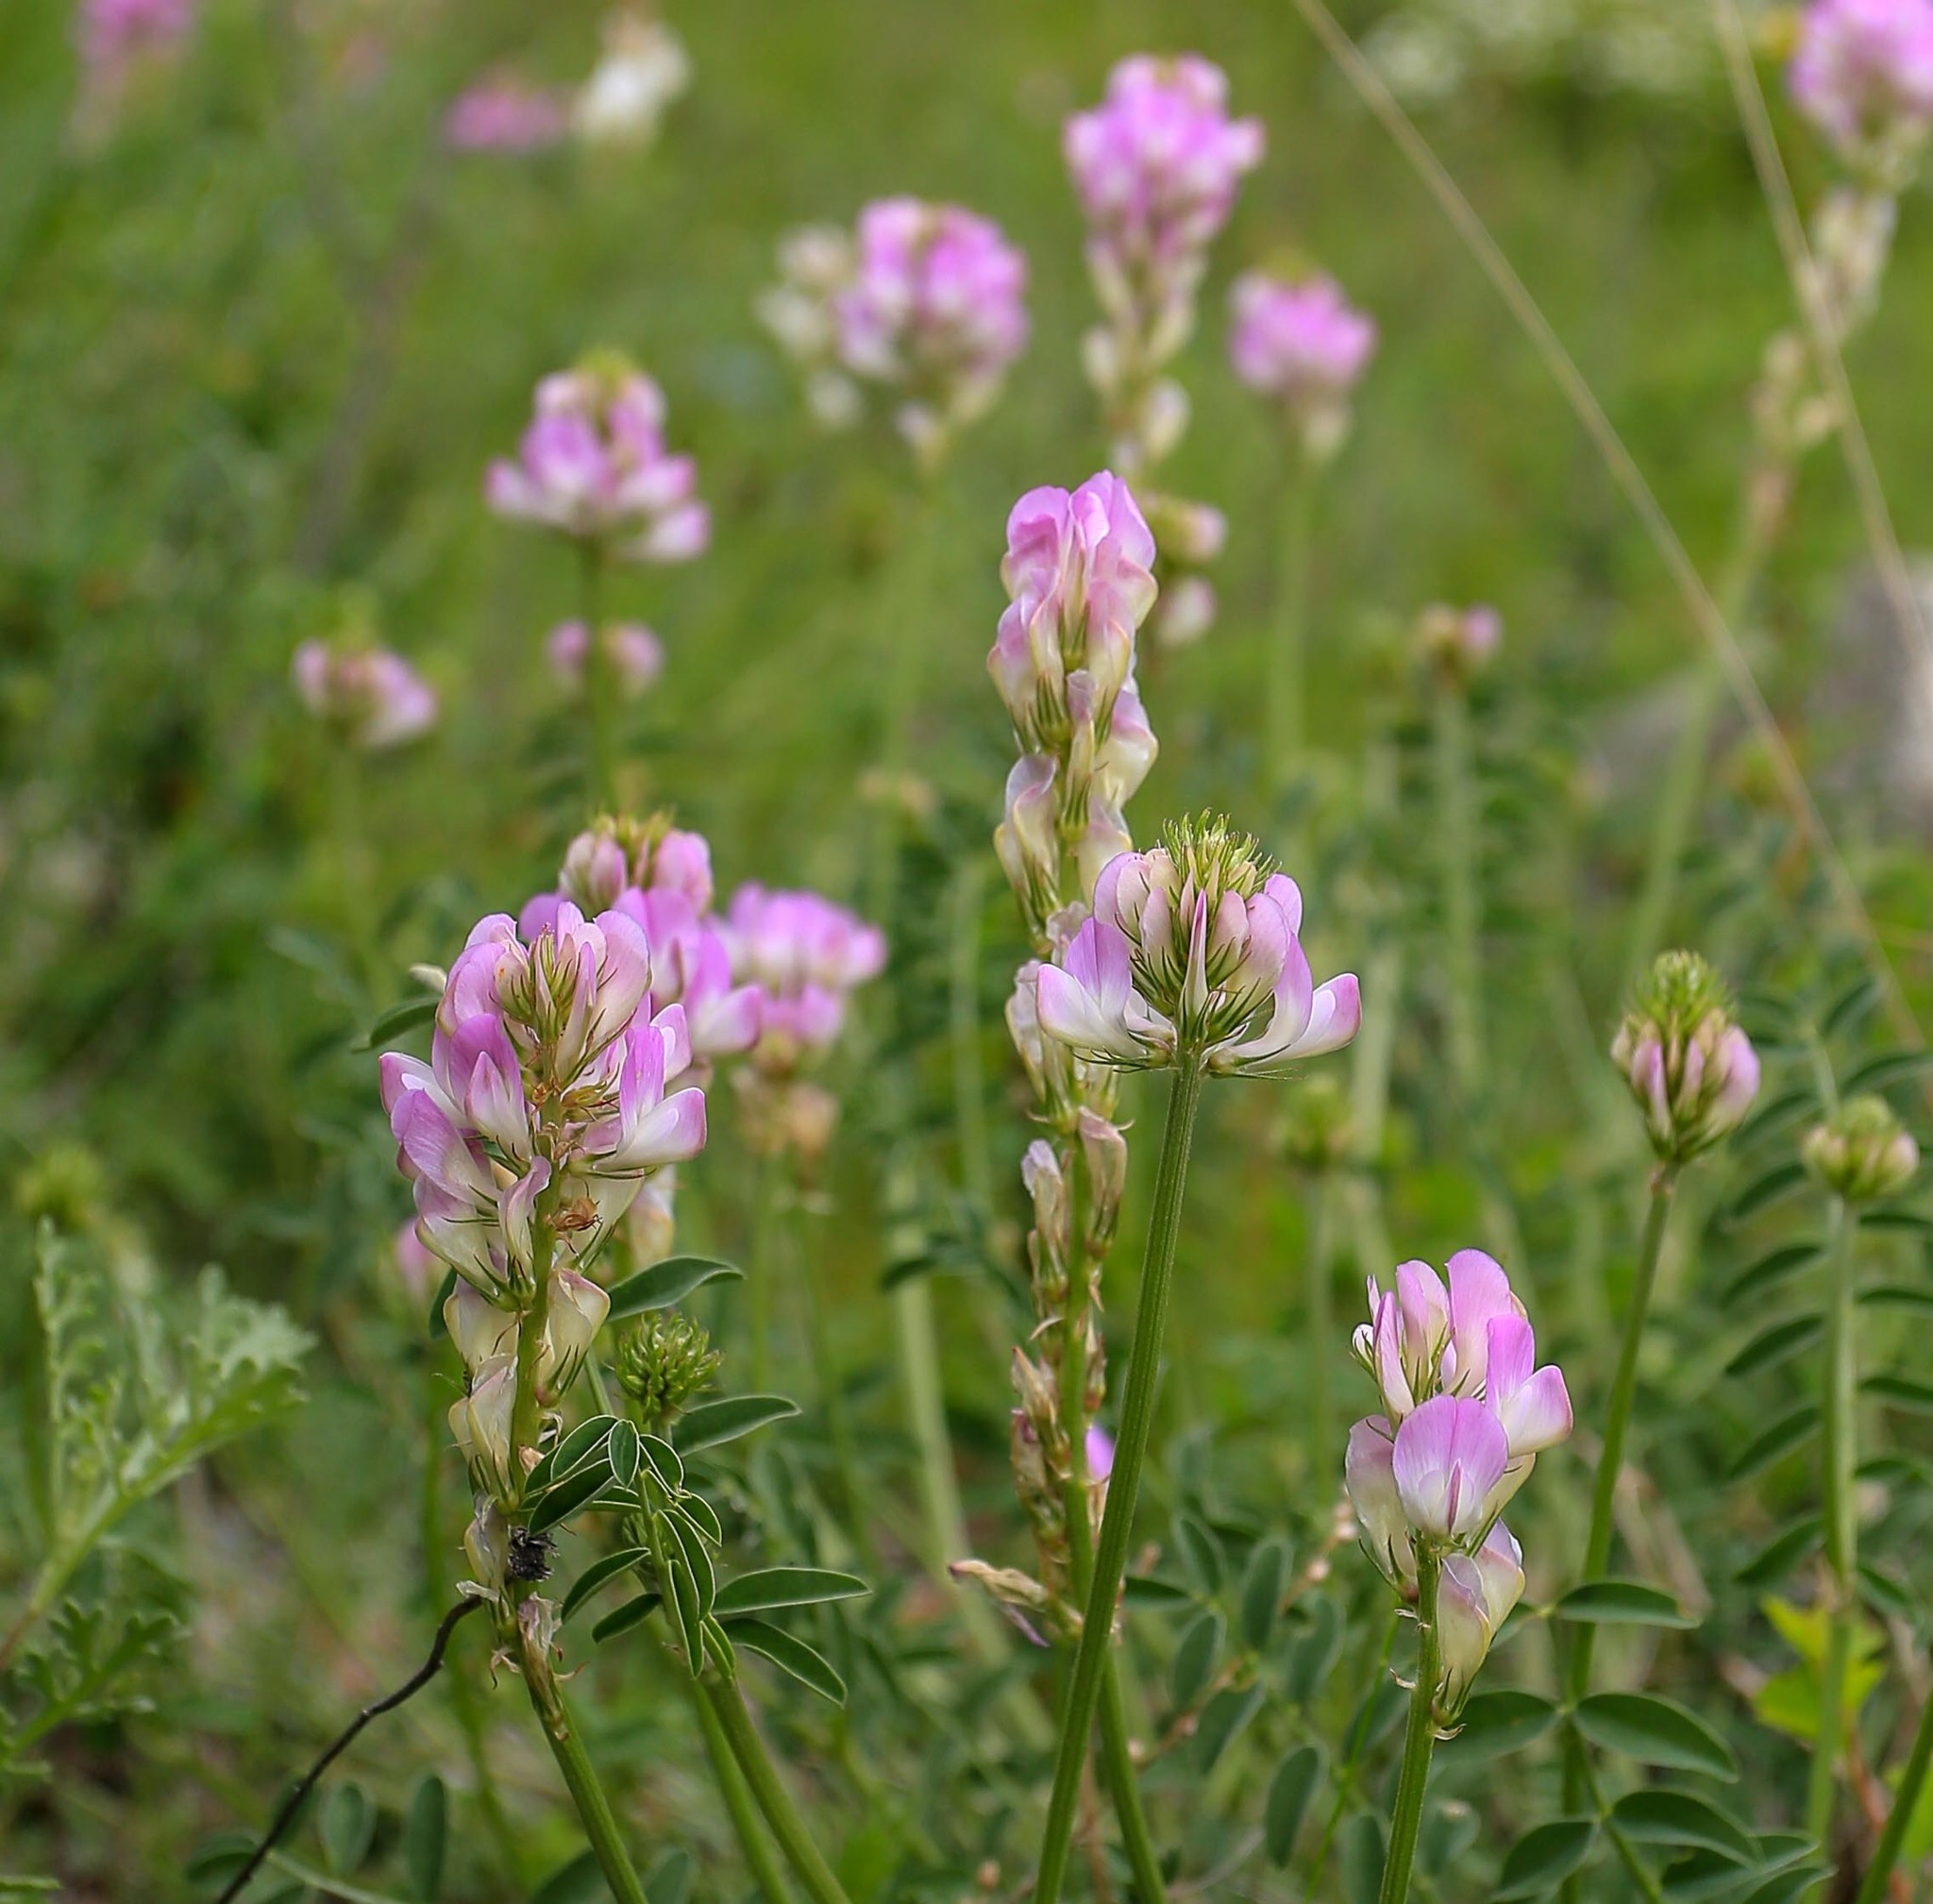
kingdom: Plantae
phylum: Tracheophyta
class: Magnoliopsida
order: Fabales
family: Fabaceae
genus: Hedysarum
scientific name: Hedysarum gmelinii
